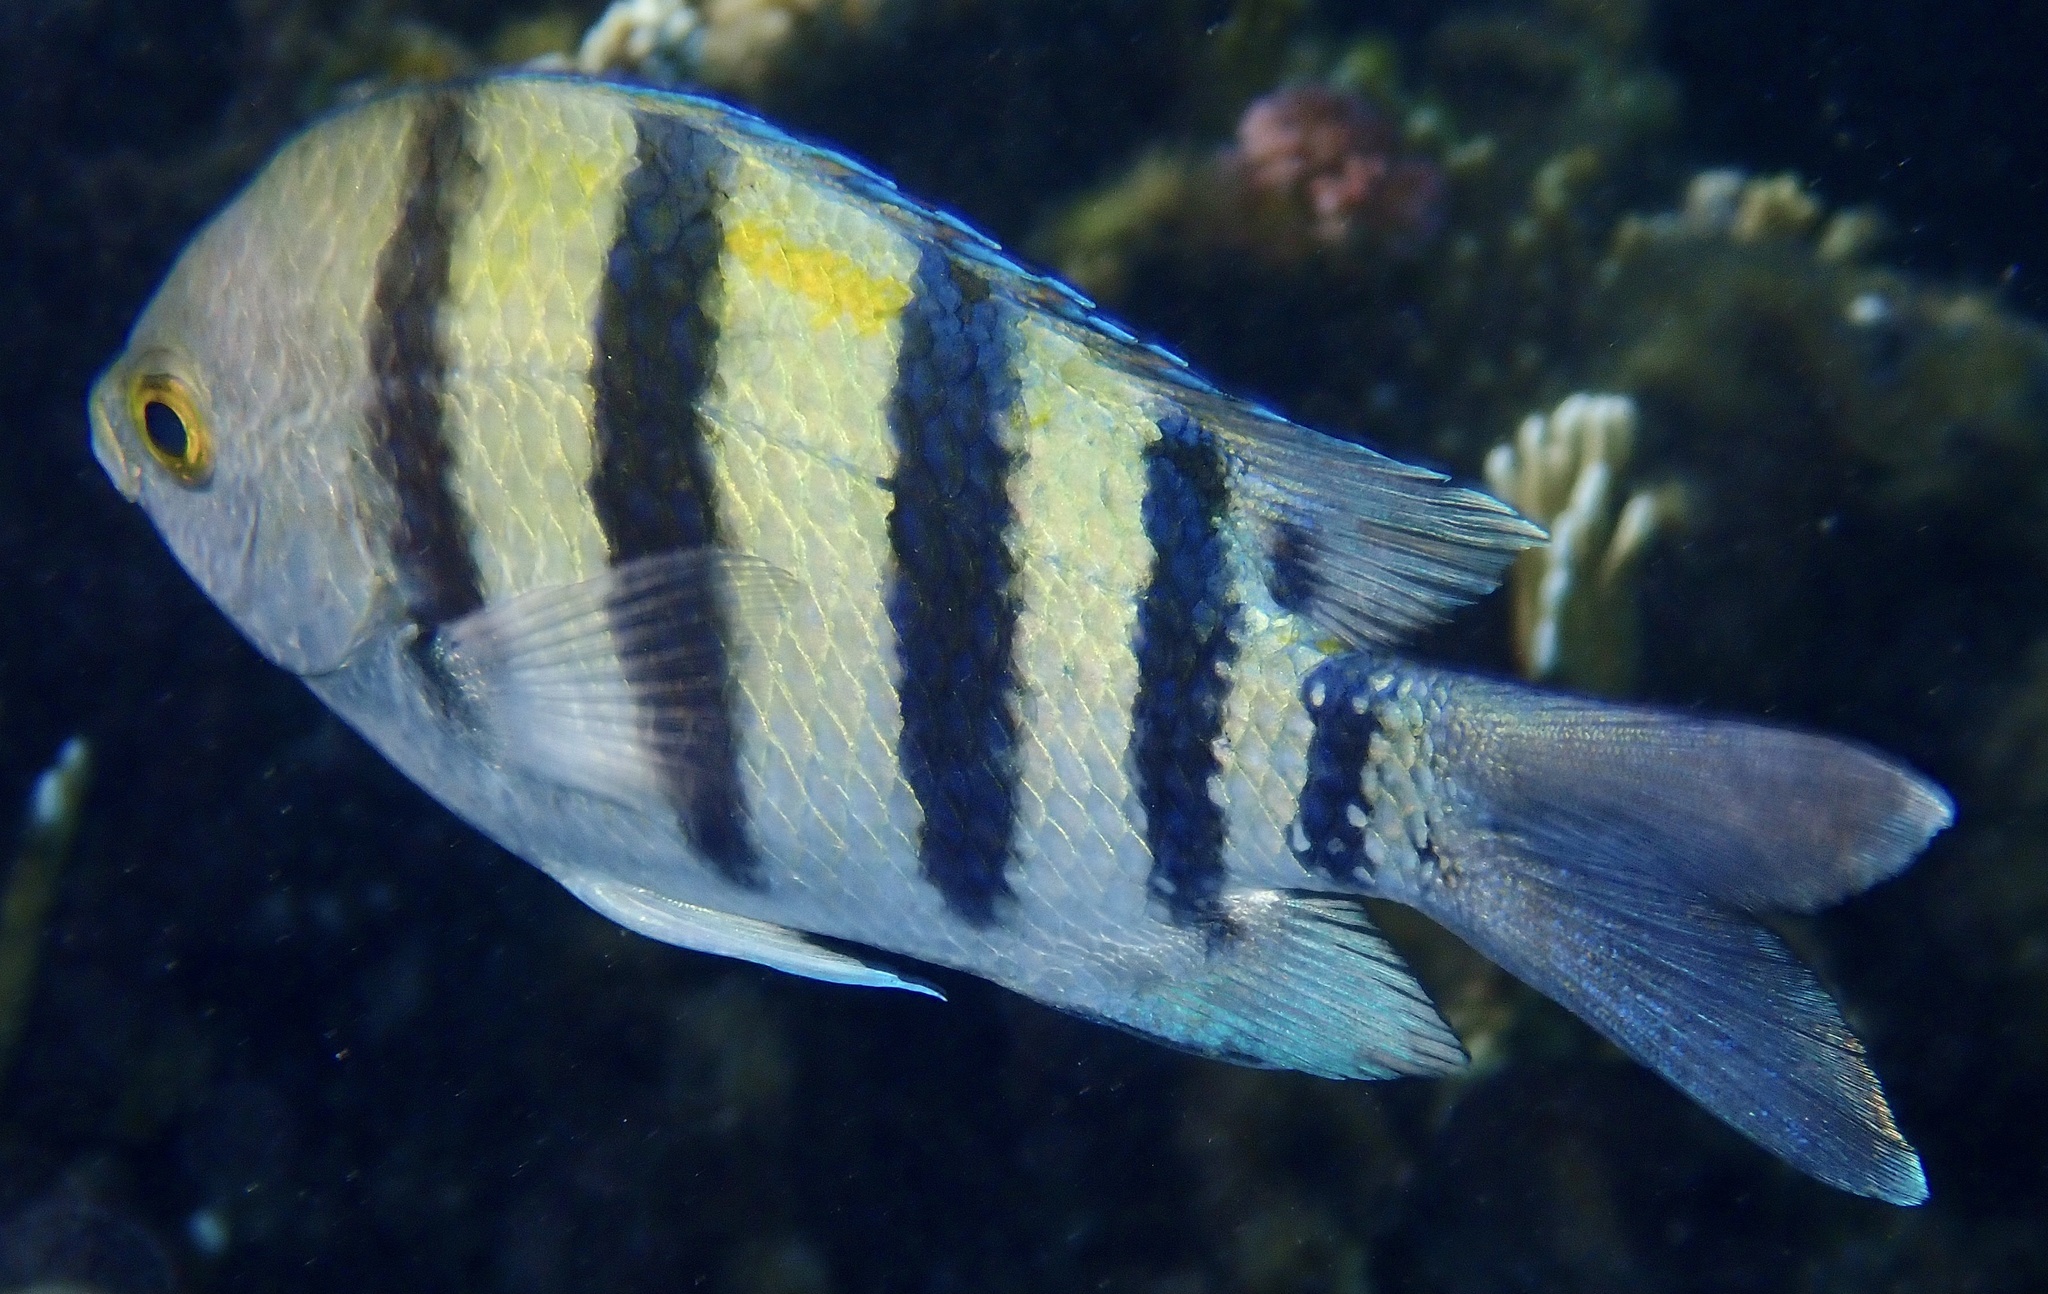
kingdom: Animalia
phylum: Chordata
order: Perciformes
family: Pomacentridae
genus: Abudefduf
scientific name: Abudefduf vaigiensis
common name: Indo-pacific sergeant
